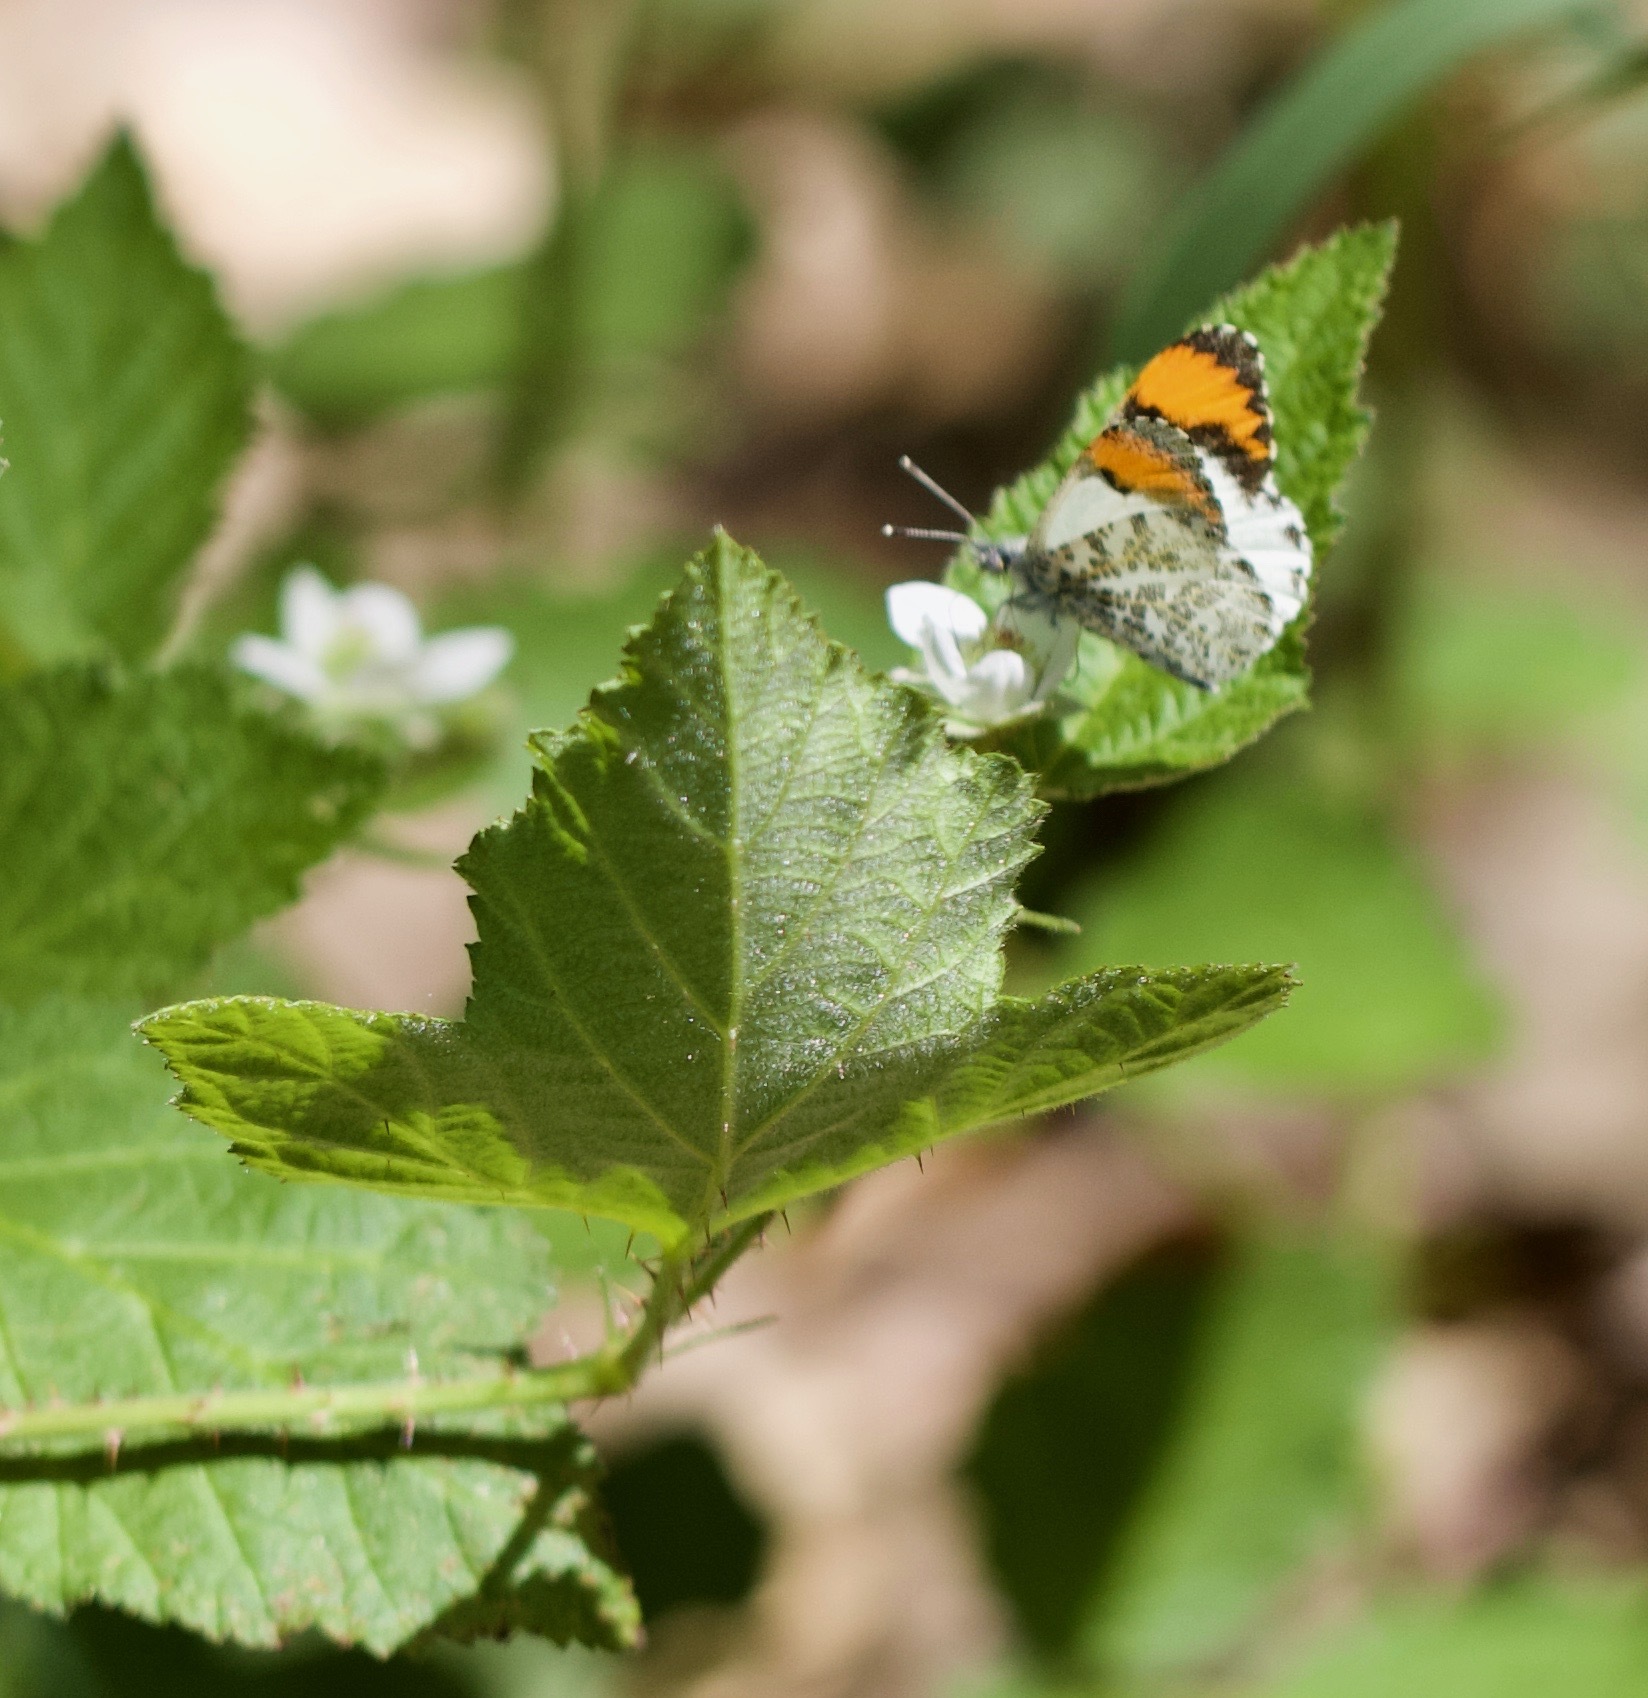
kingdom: Animalia
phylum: Arthropoda
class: Insecta
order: Lepidoptera
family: Pieridae
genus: Anthocharis
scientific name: Anthocharis sara
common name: Sara's orangetip
